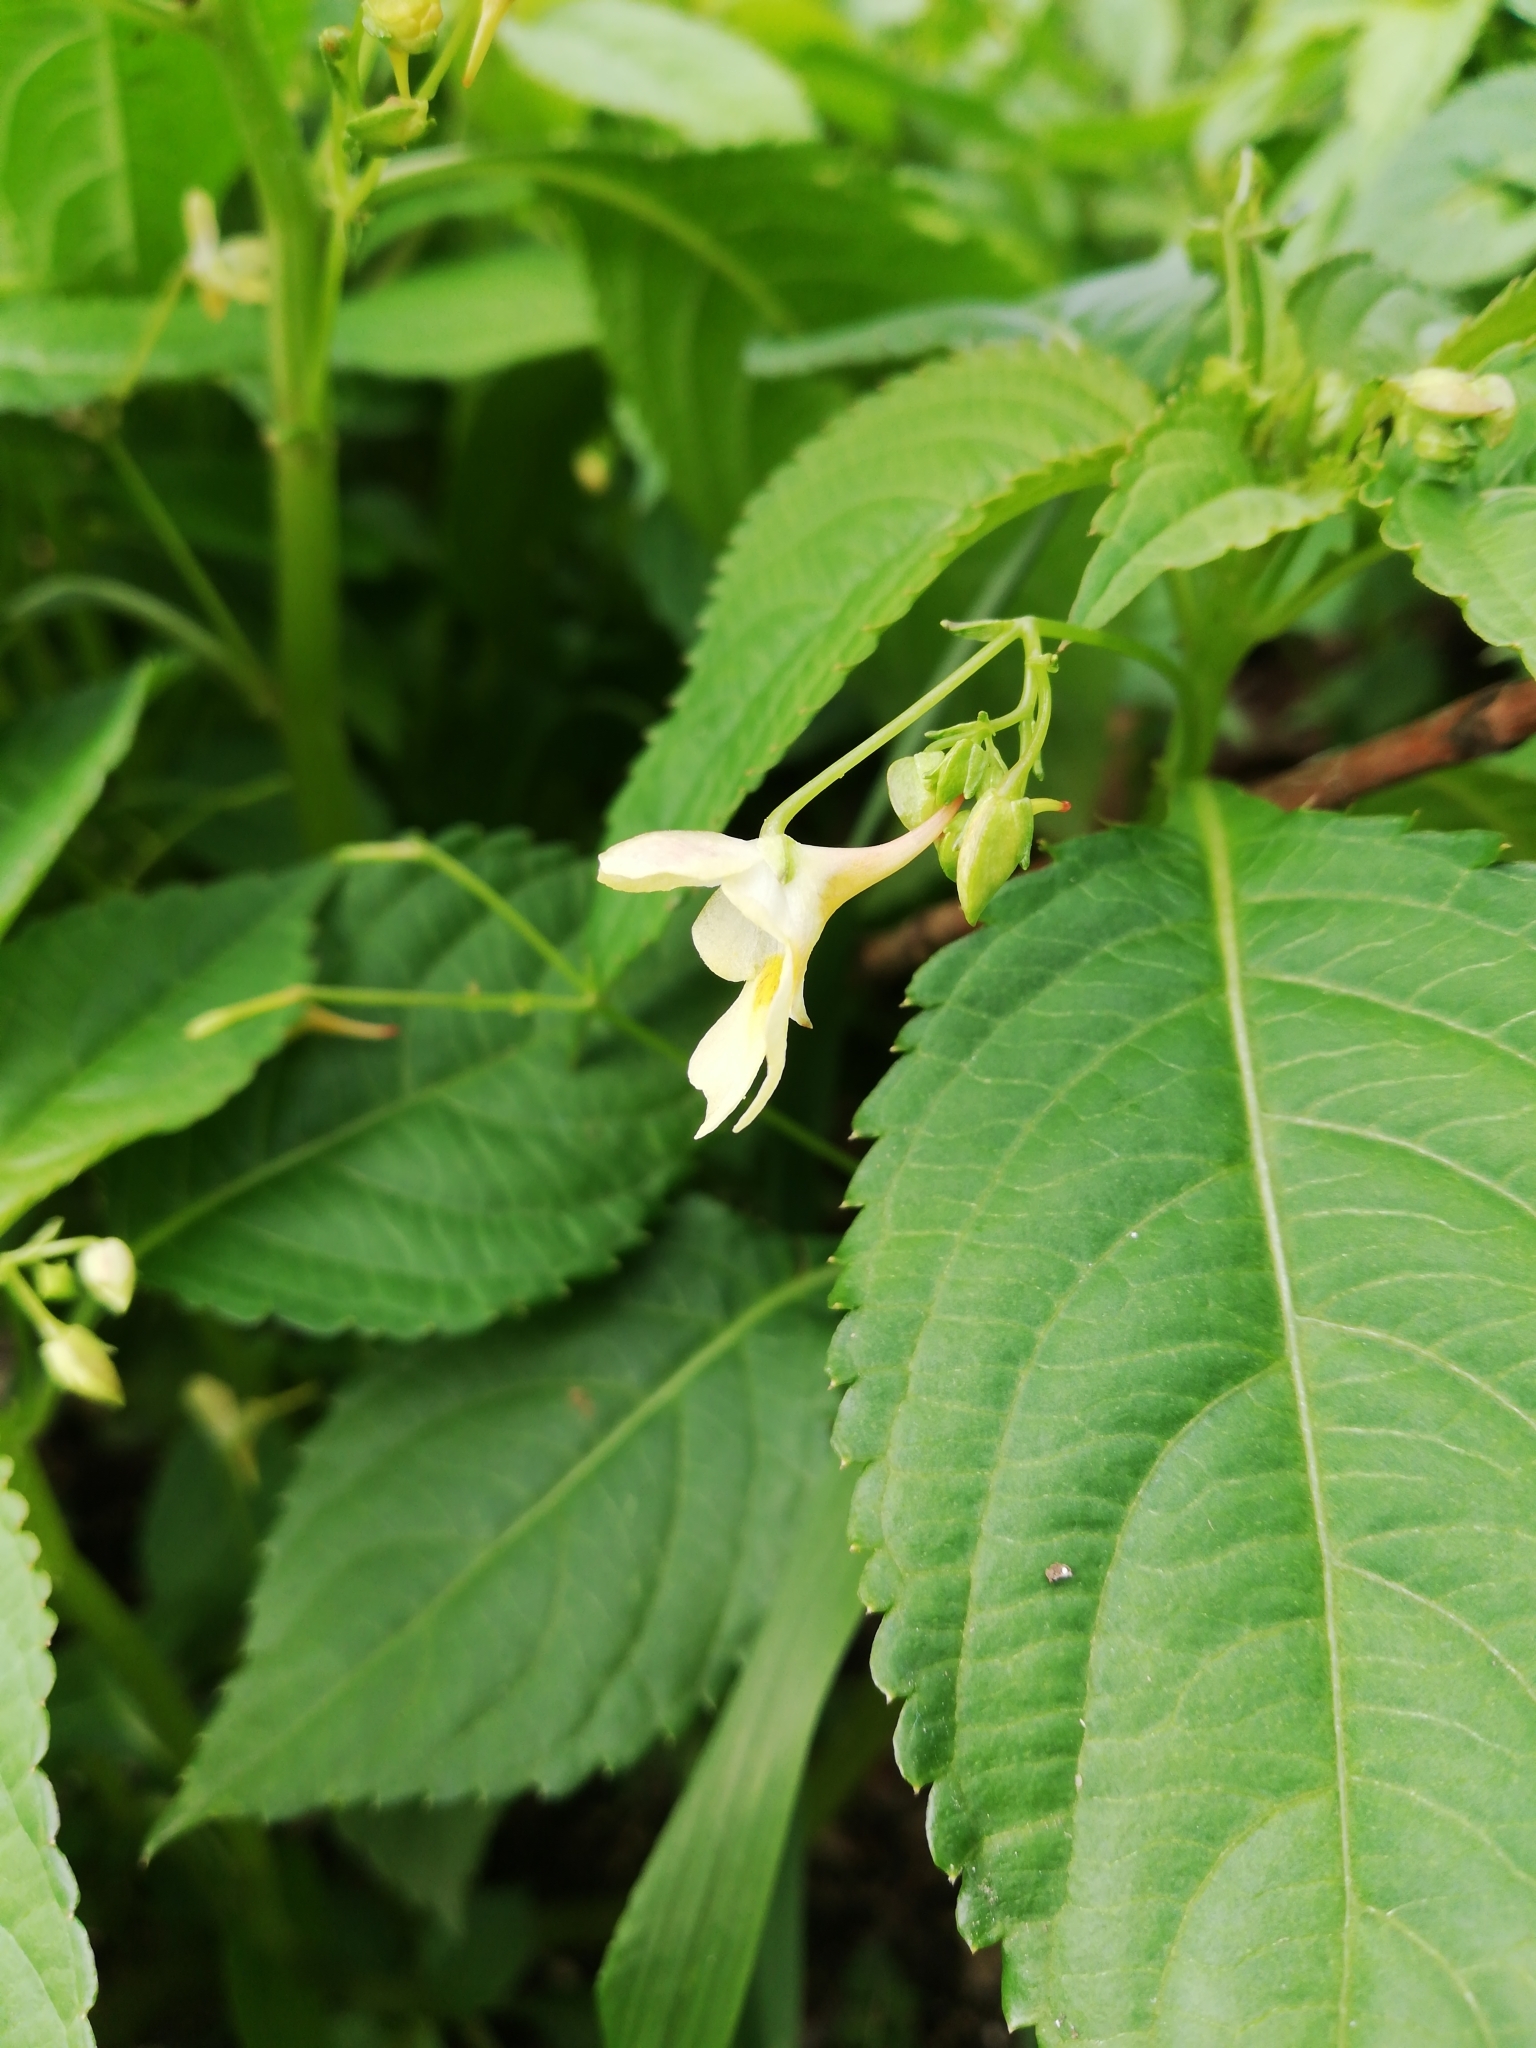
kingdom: Plantae
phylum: Tracheophyta
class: Magnoliopsida
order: Ericales
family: Balsaminaceae
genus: Impatiens
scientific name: Impatiens parviflora
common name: Small balsam
